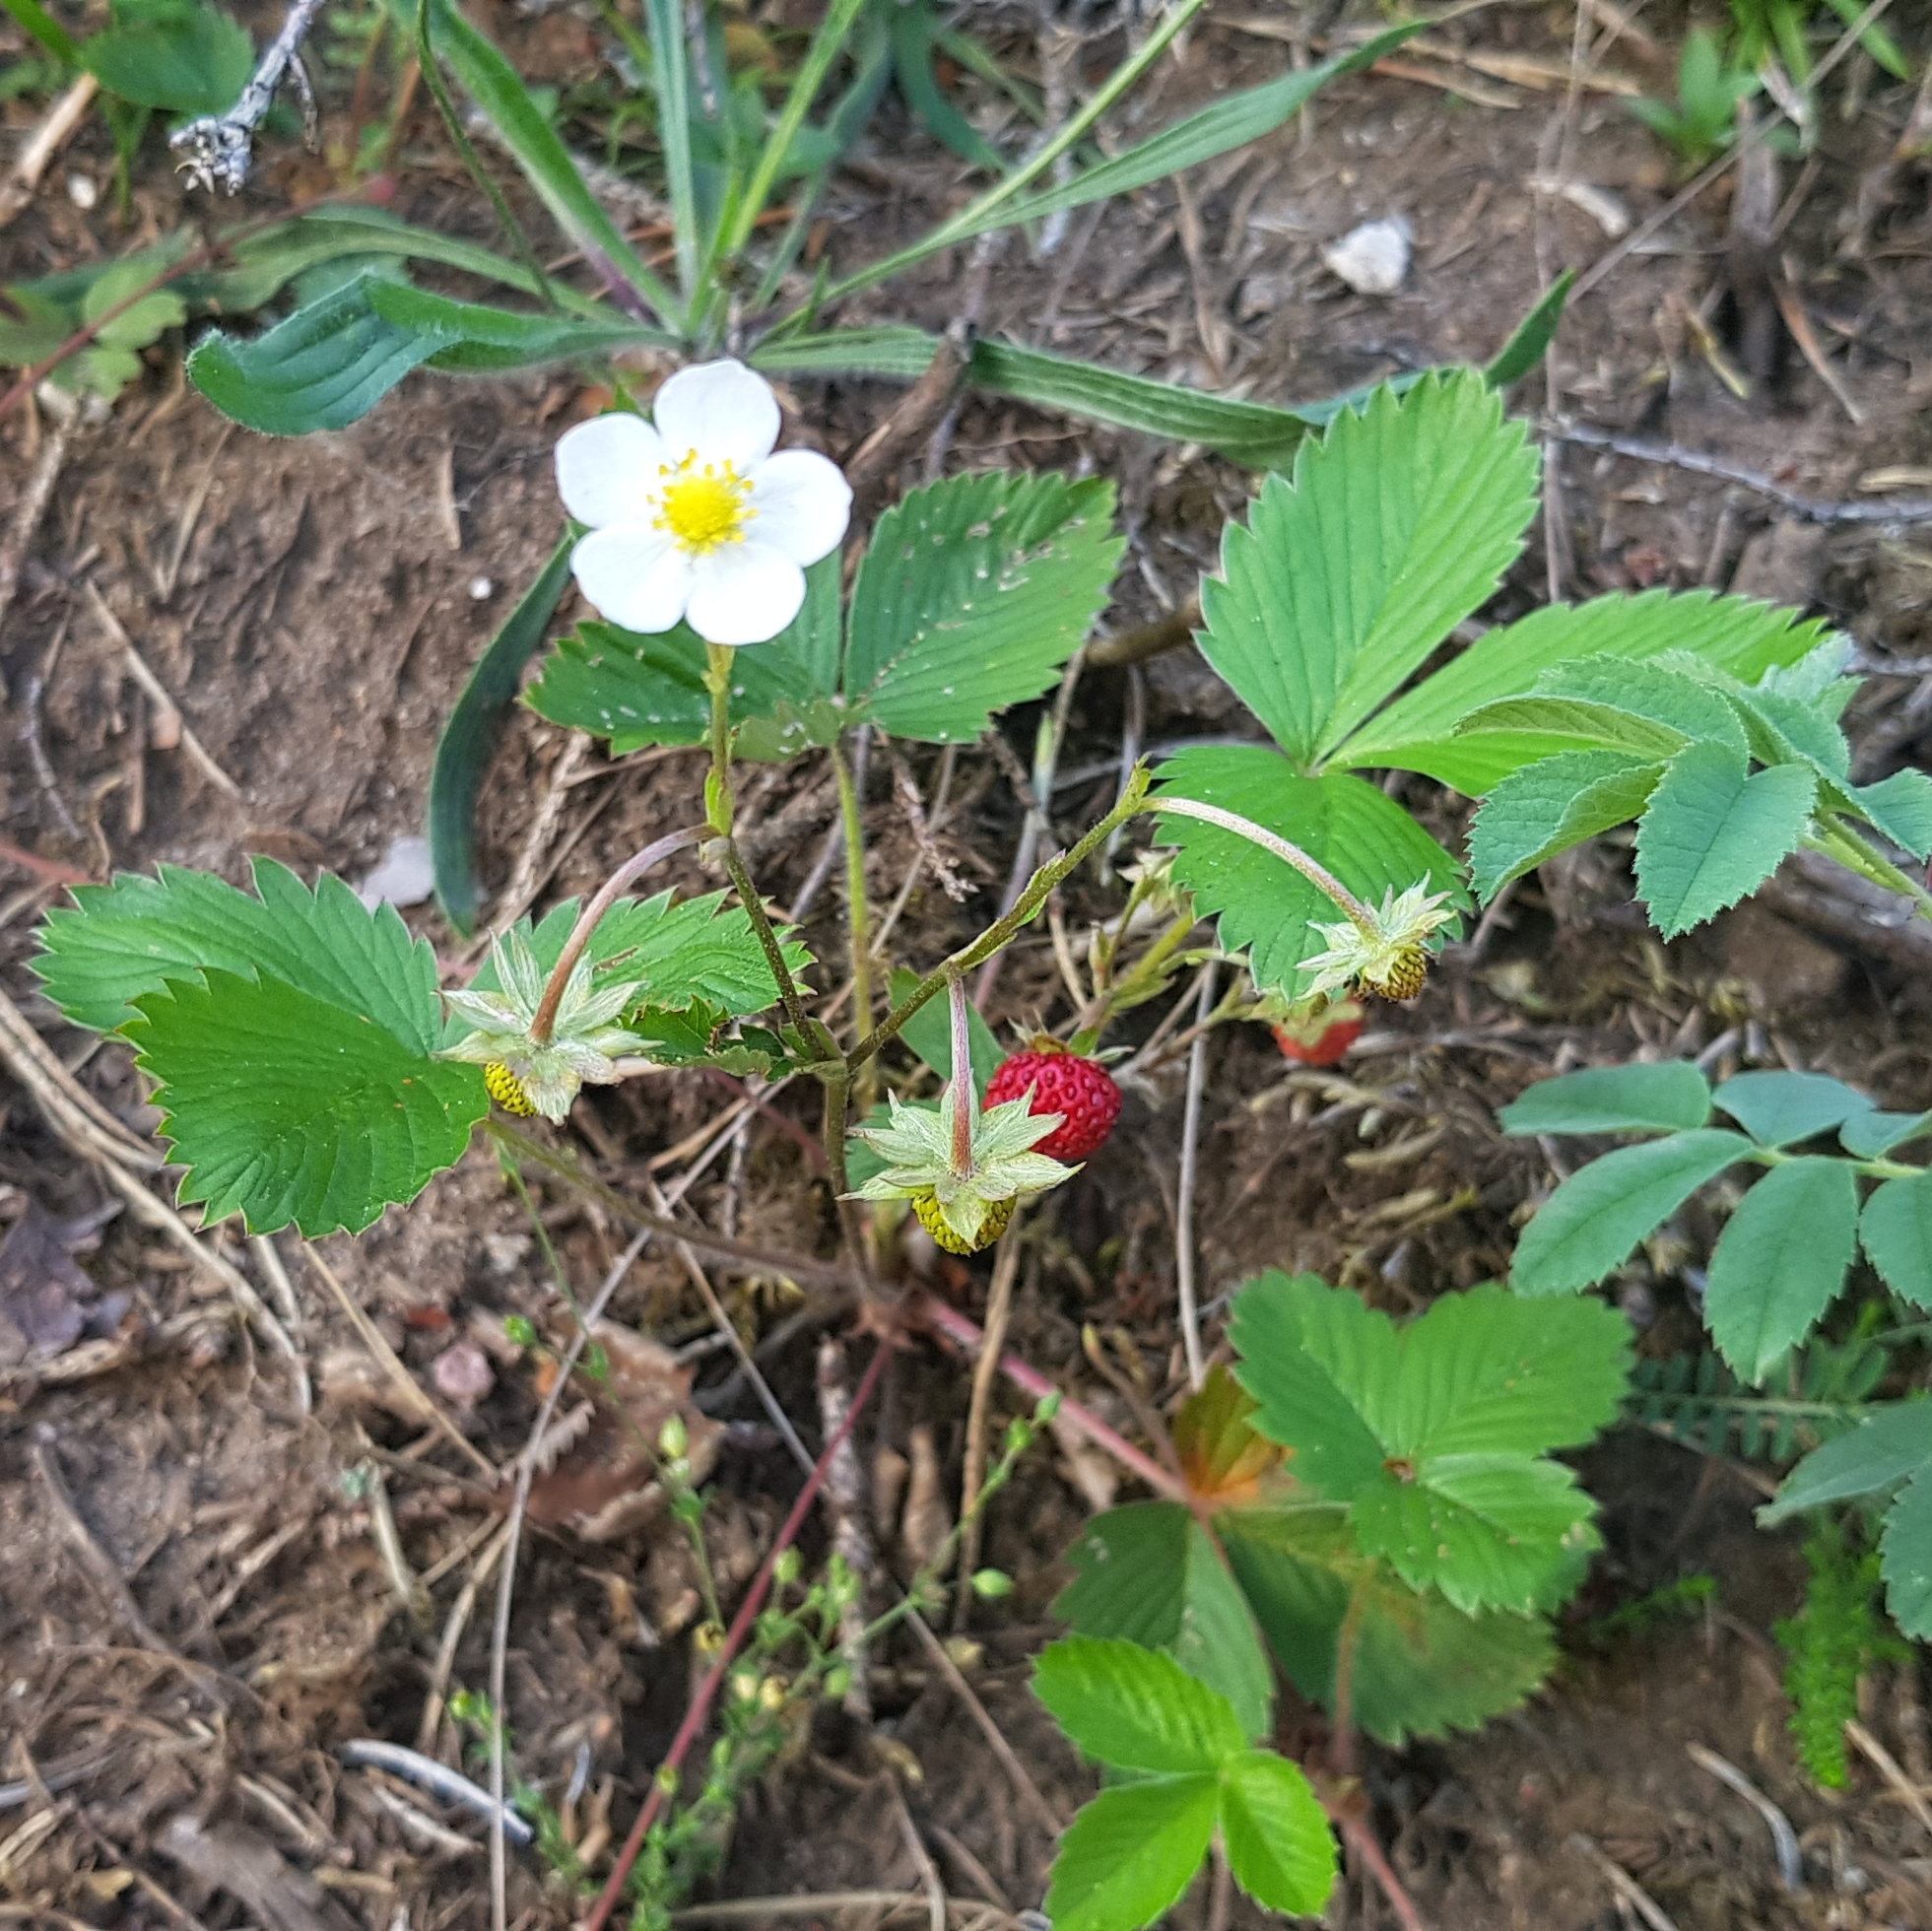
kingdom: Plantae
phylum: Tracheophyta
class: Magnoliopsida
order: Rosales
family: Rosaceae
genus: Fragaria
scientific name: Fragaria vesca
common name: Wild strawberry
